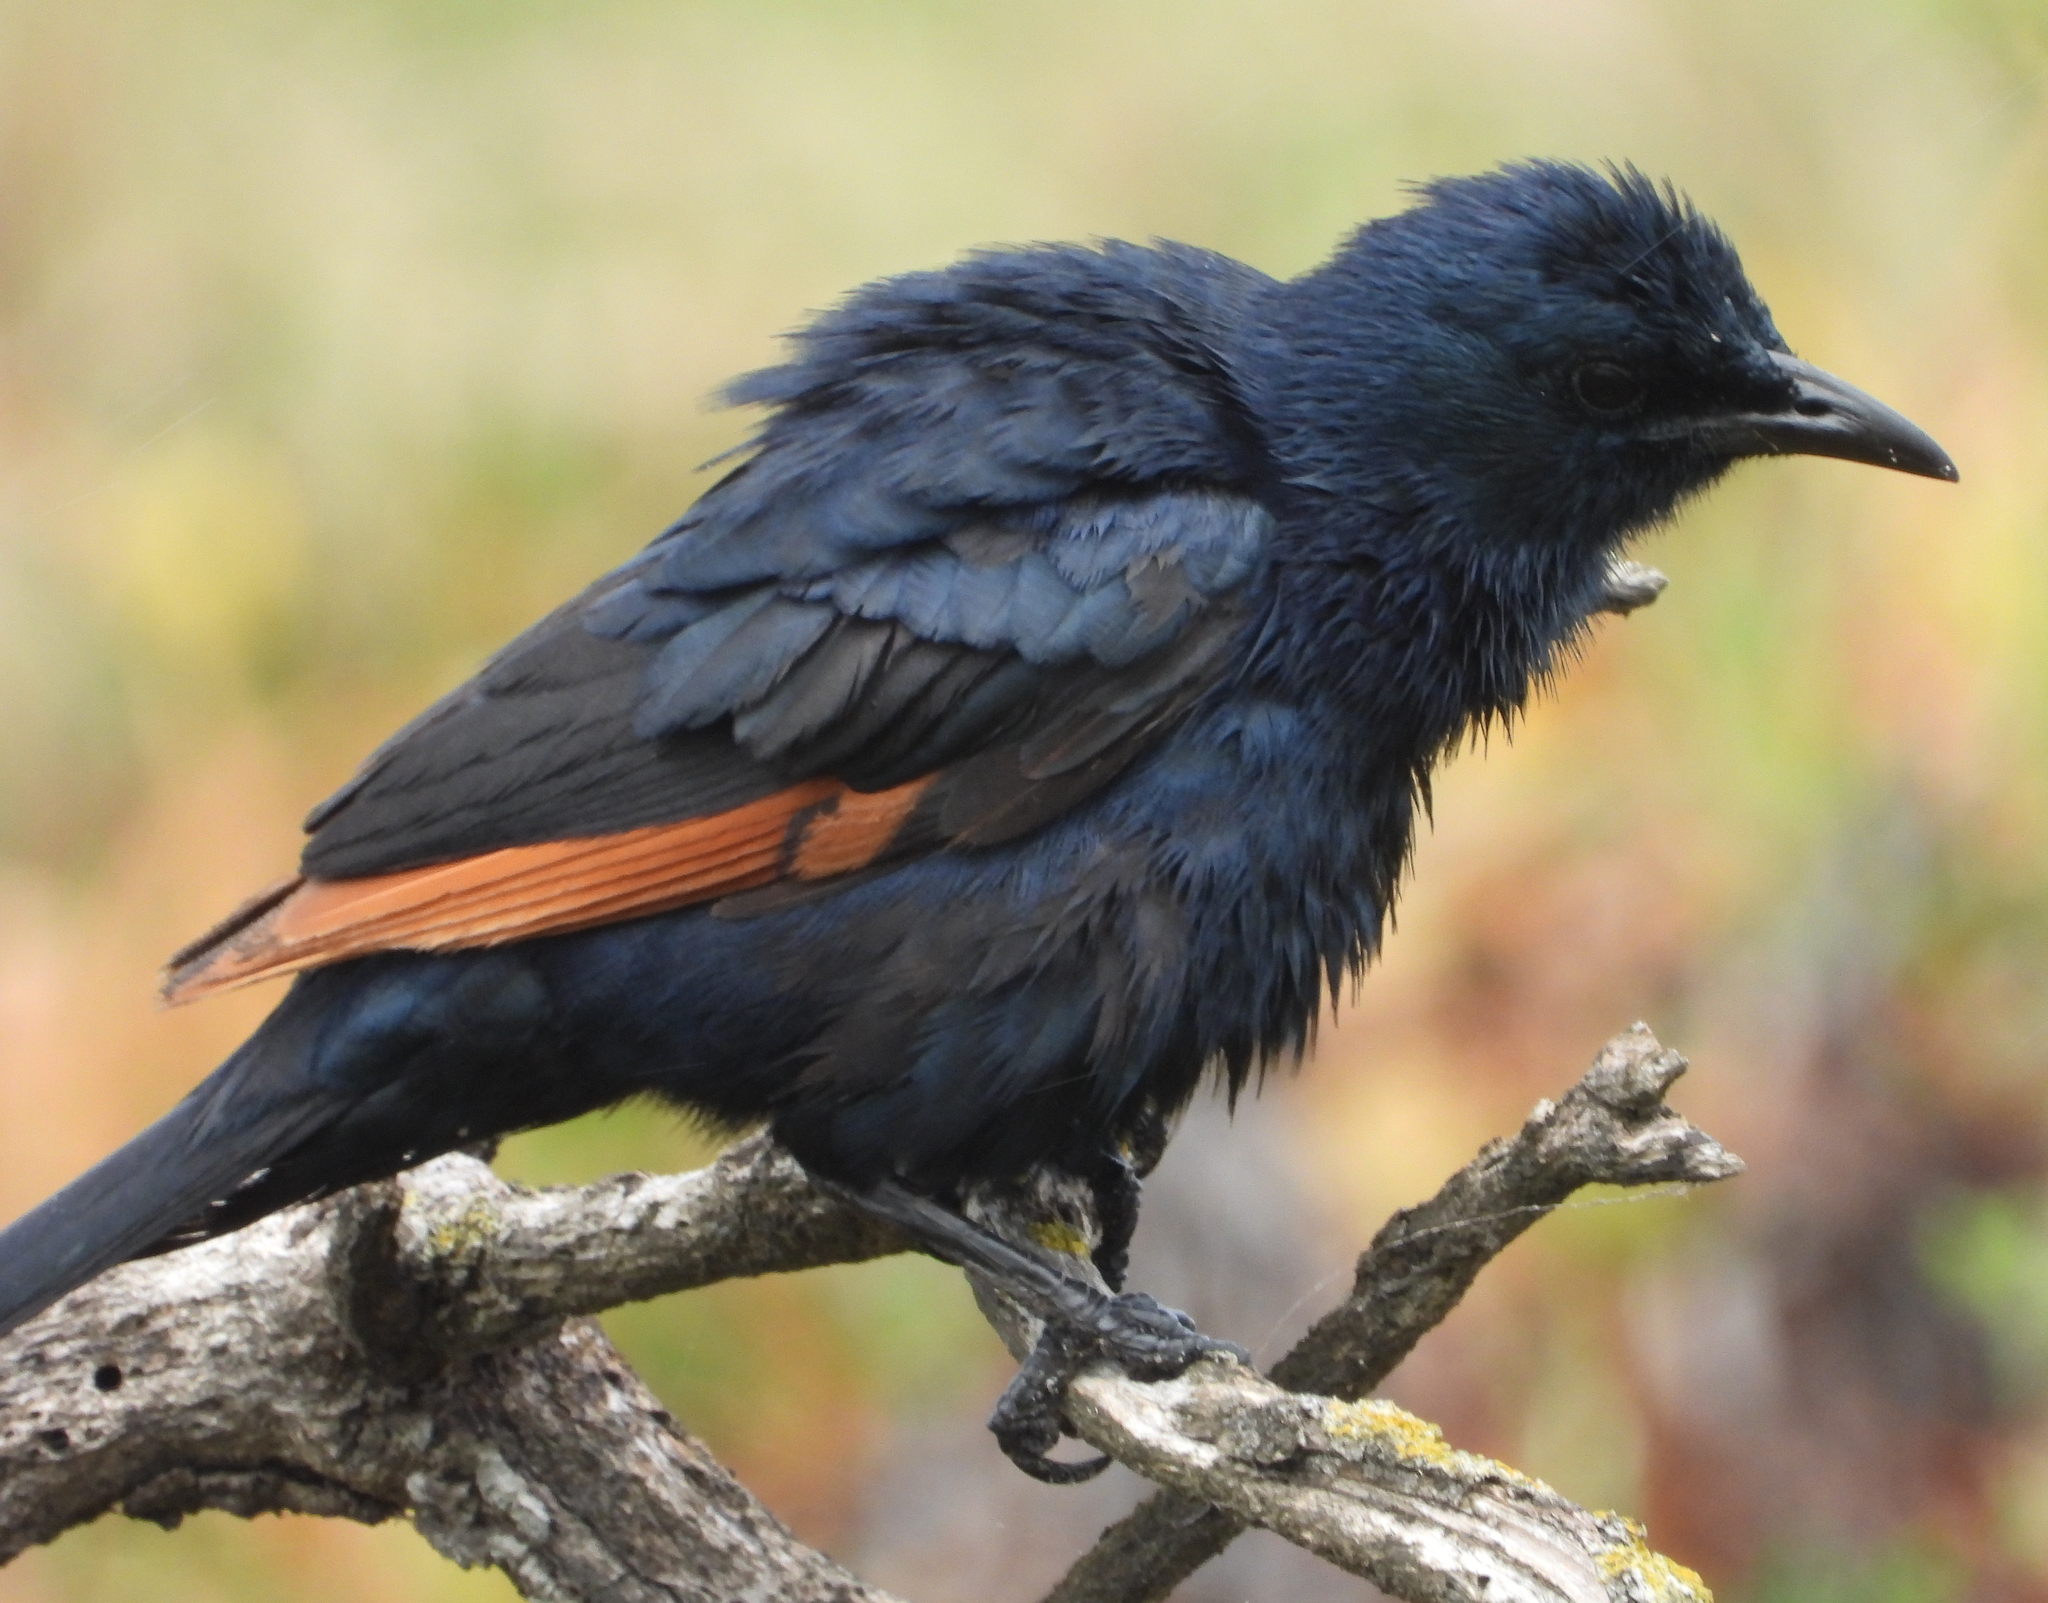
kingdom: Animalia
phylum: Chordata
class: Aves
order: Passeriformes
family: Sturnidae
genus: Onychognathus
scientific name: Onychognathus morio
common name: Red-winged starling
